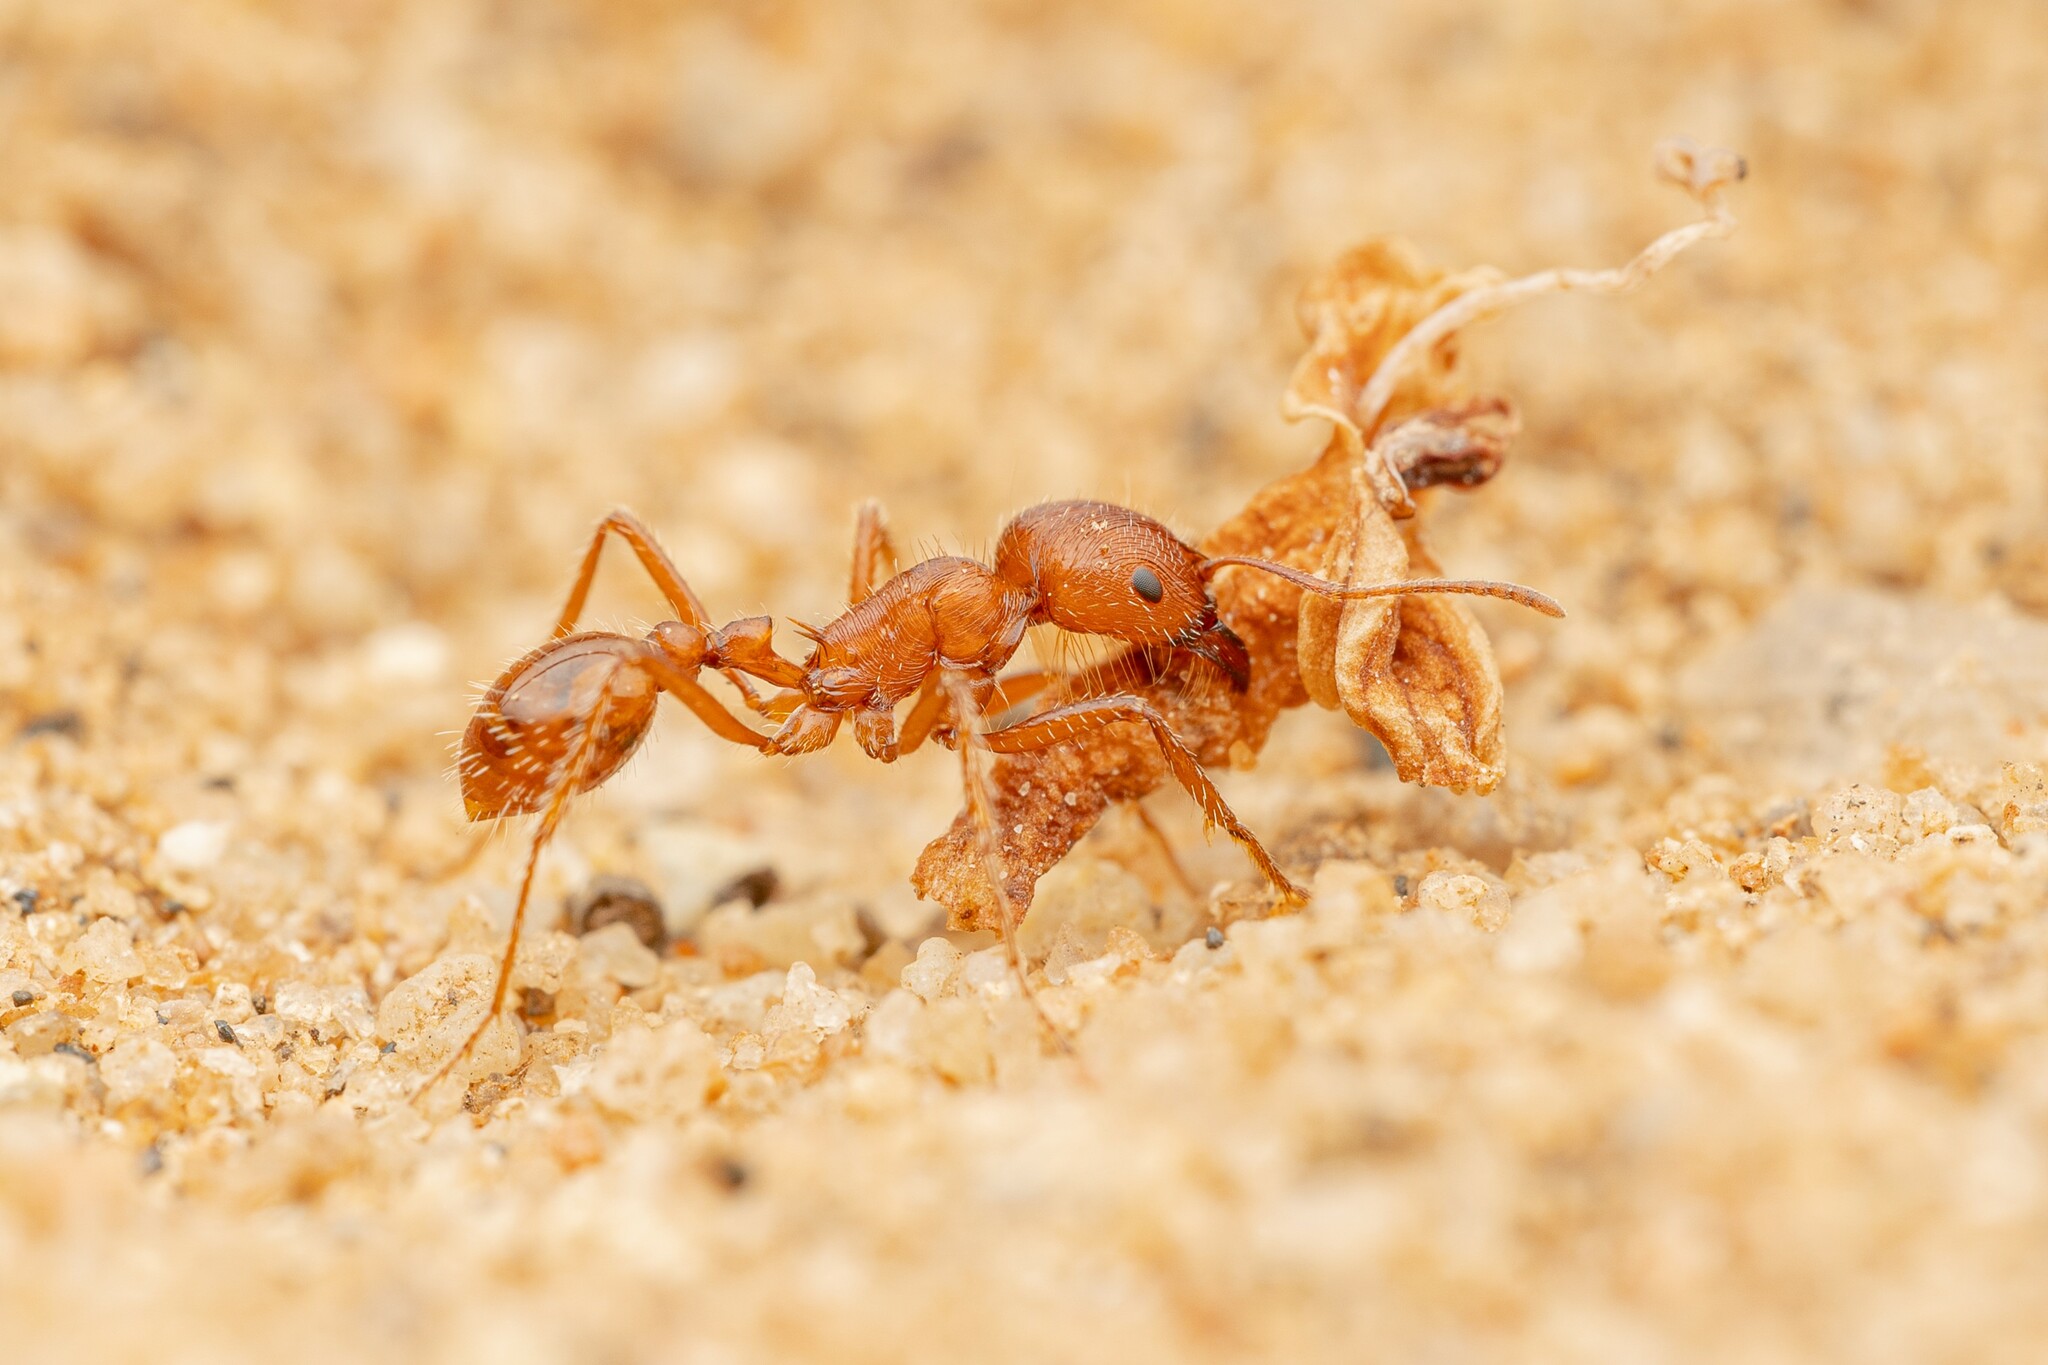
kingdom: Animalia
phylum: Arthropoda
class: Insecta
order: Hymenoptera
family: Formicidae
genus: Pogonomyrmex
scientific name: Pogonomyrmex subnitidus
